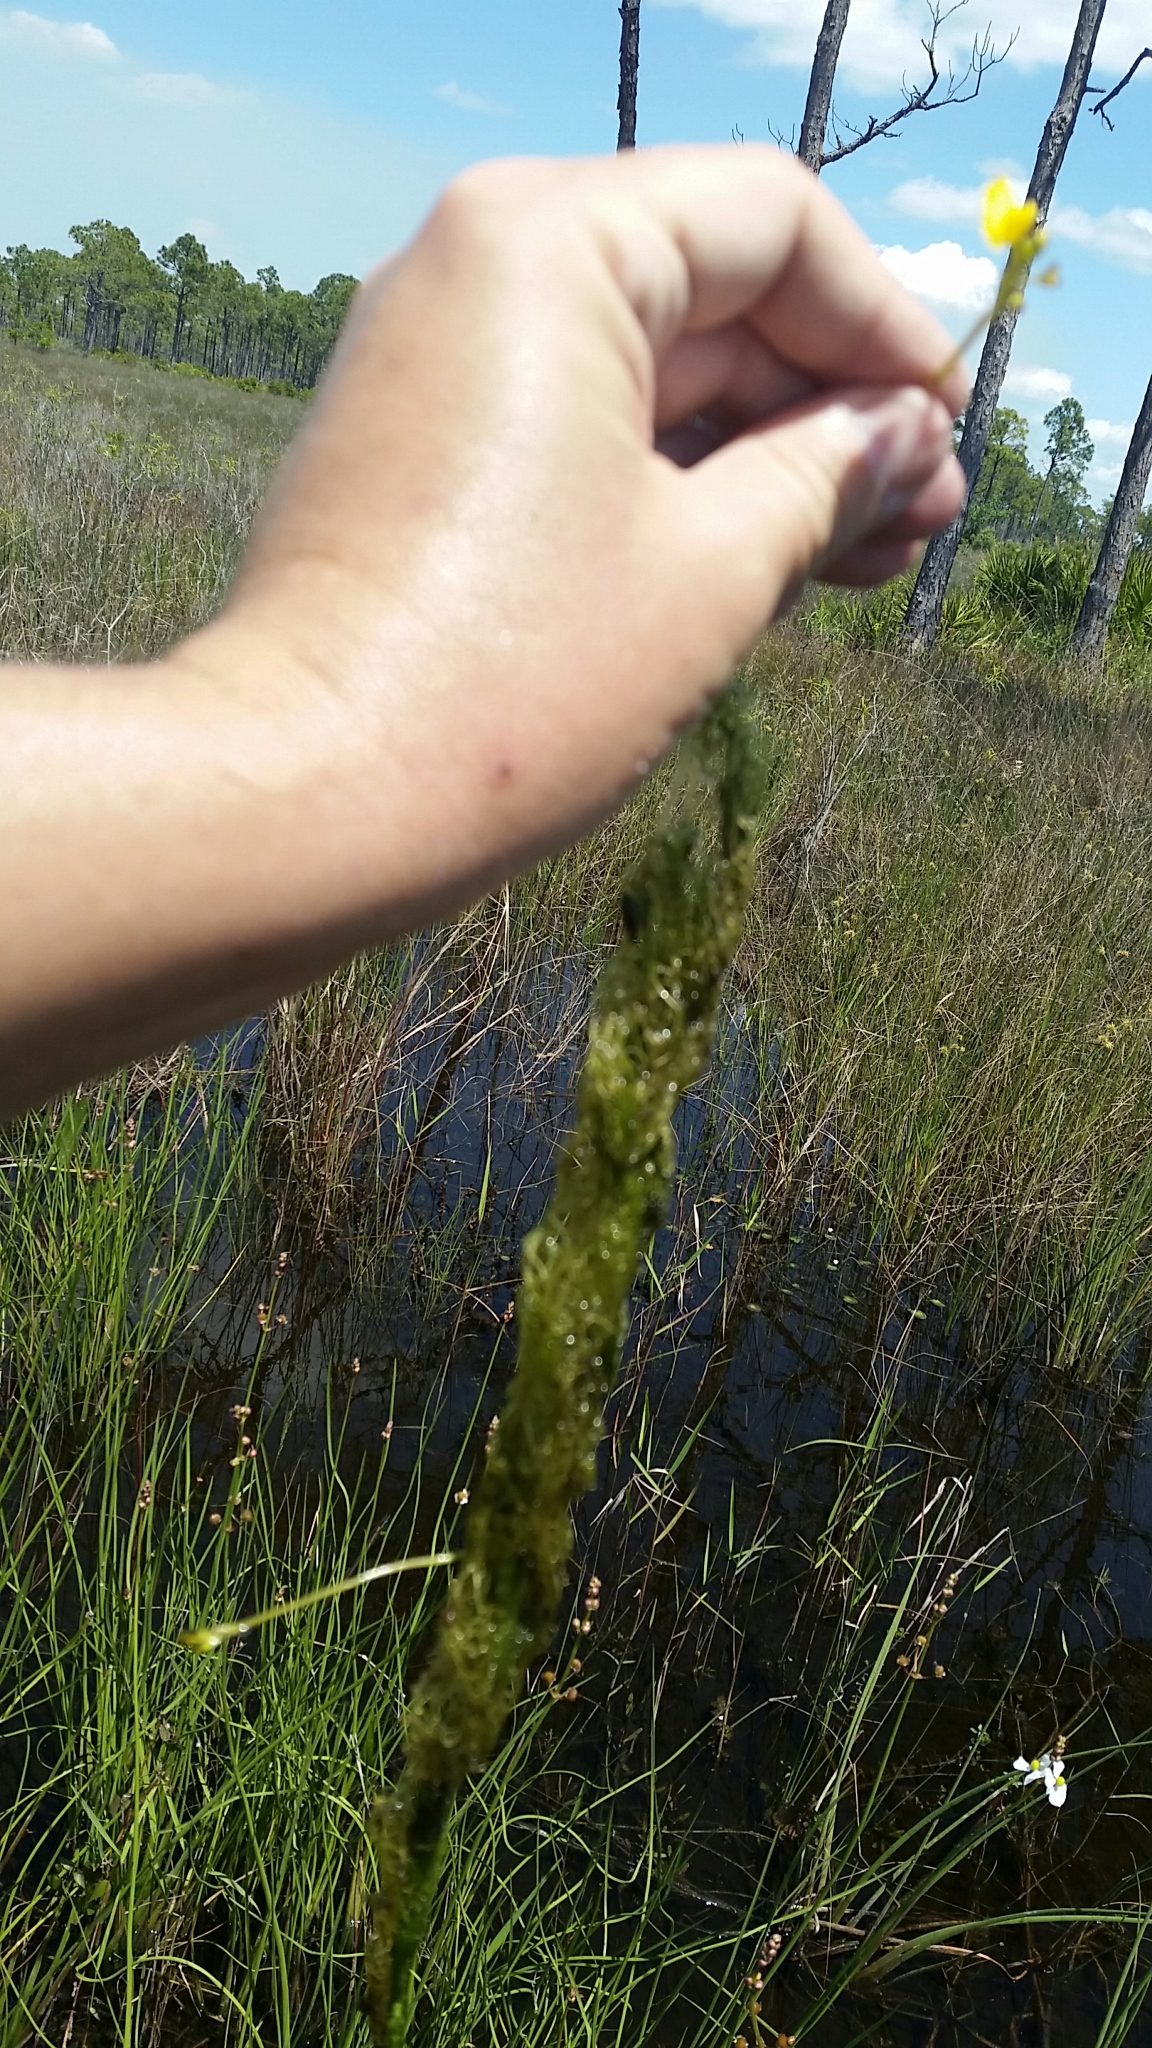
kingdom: Plantae
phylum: Tracheophyta
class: Magnoliopsida
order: Lamiales
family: Lentibulariaceae
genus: Utricularia
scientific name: Utricularia foliosa
